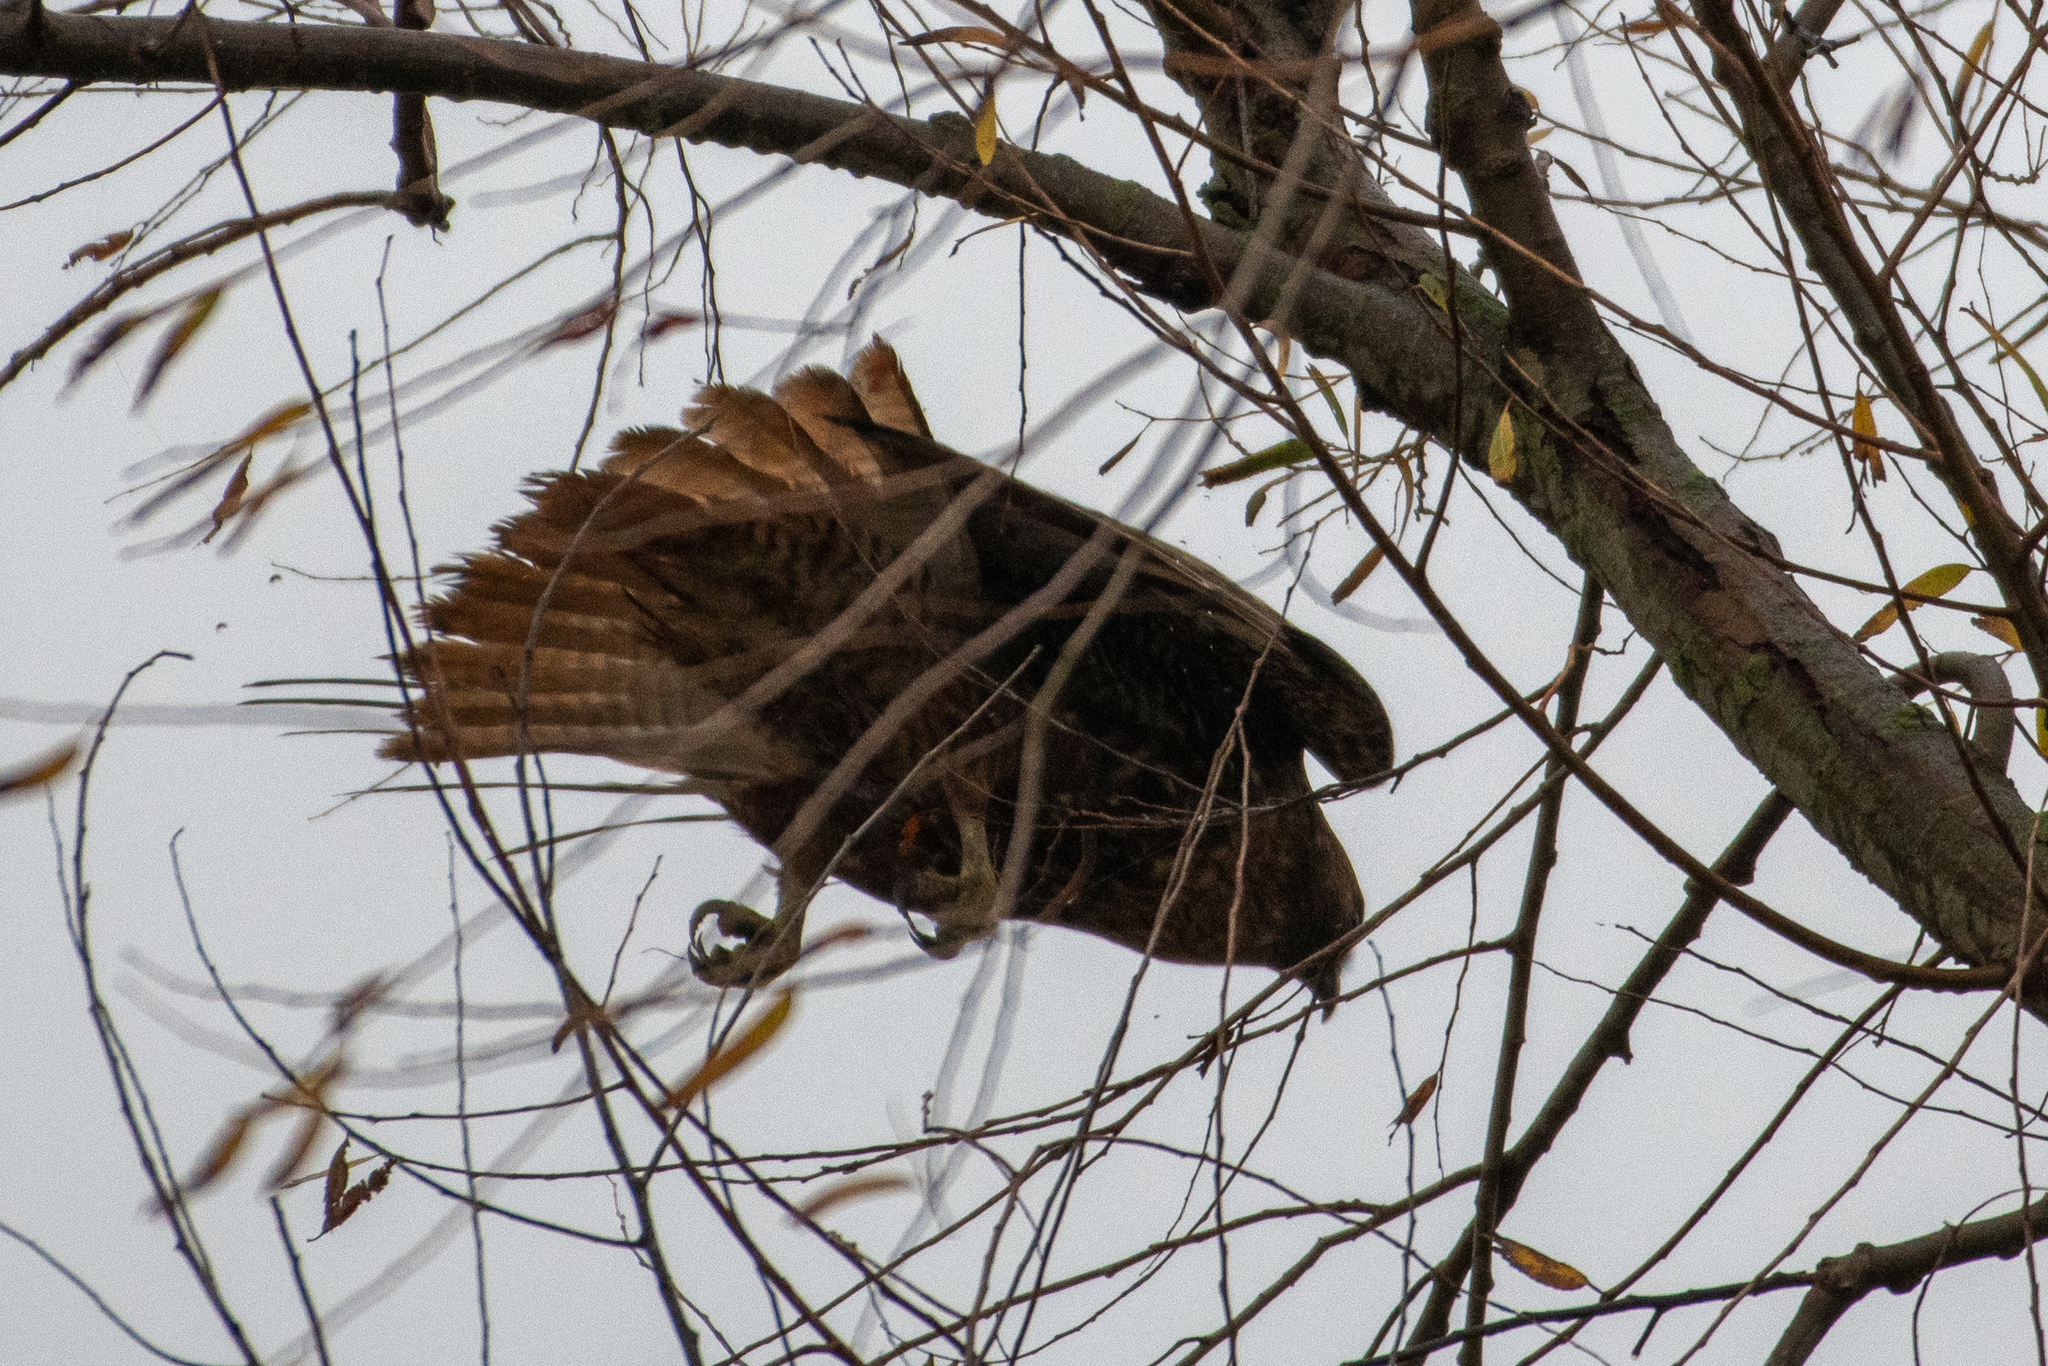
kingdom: Animalia
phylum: Chordata
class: Aves
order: Accipitriformes
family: Accipitridae
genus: Buteo
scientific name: Buteo jamaicensis
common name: Red-tailed hawk
